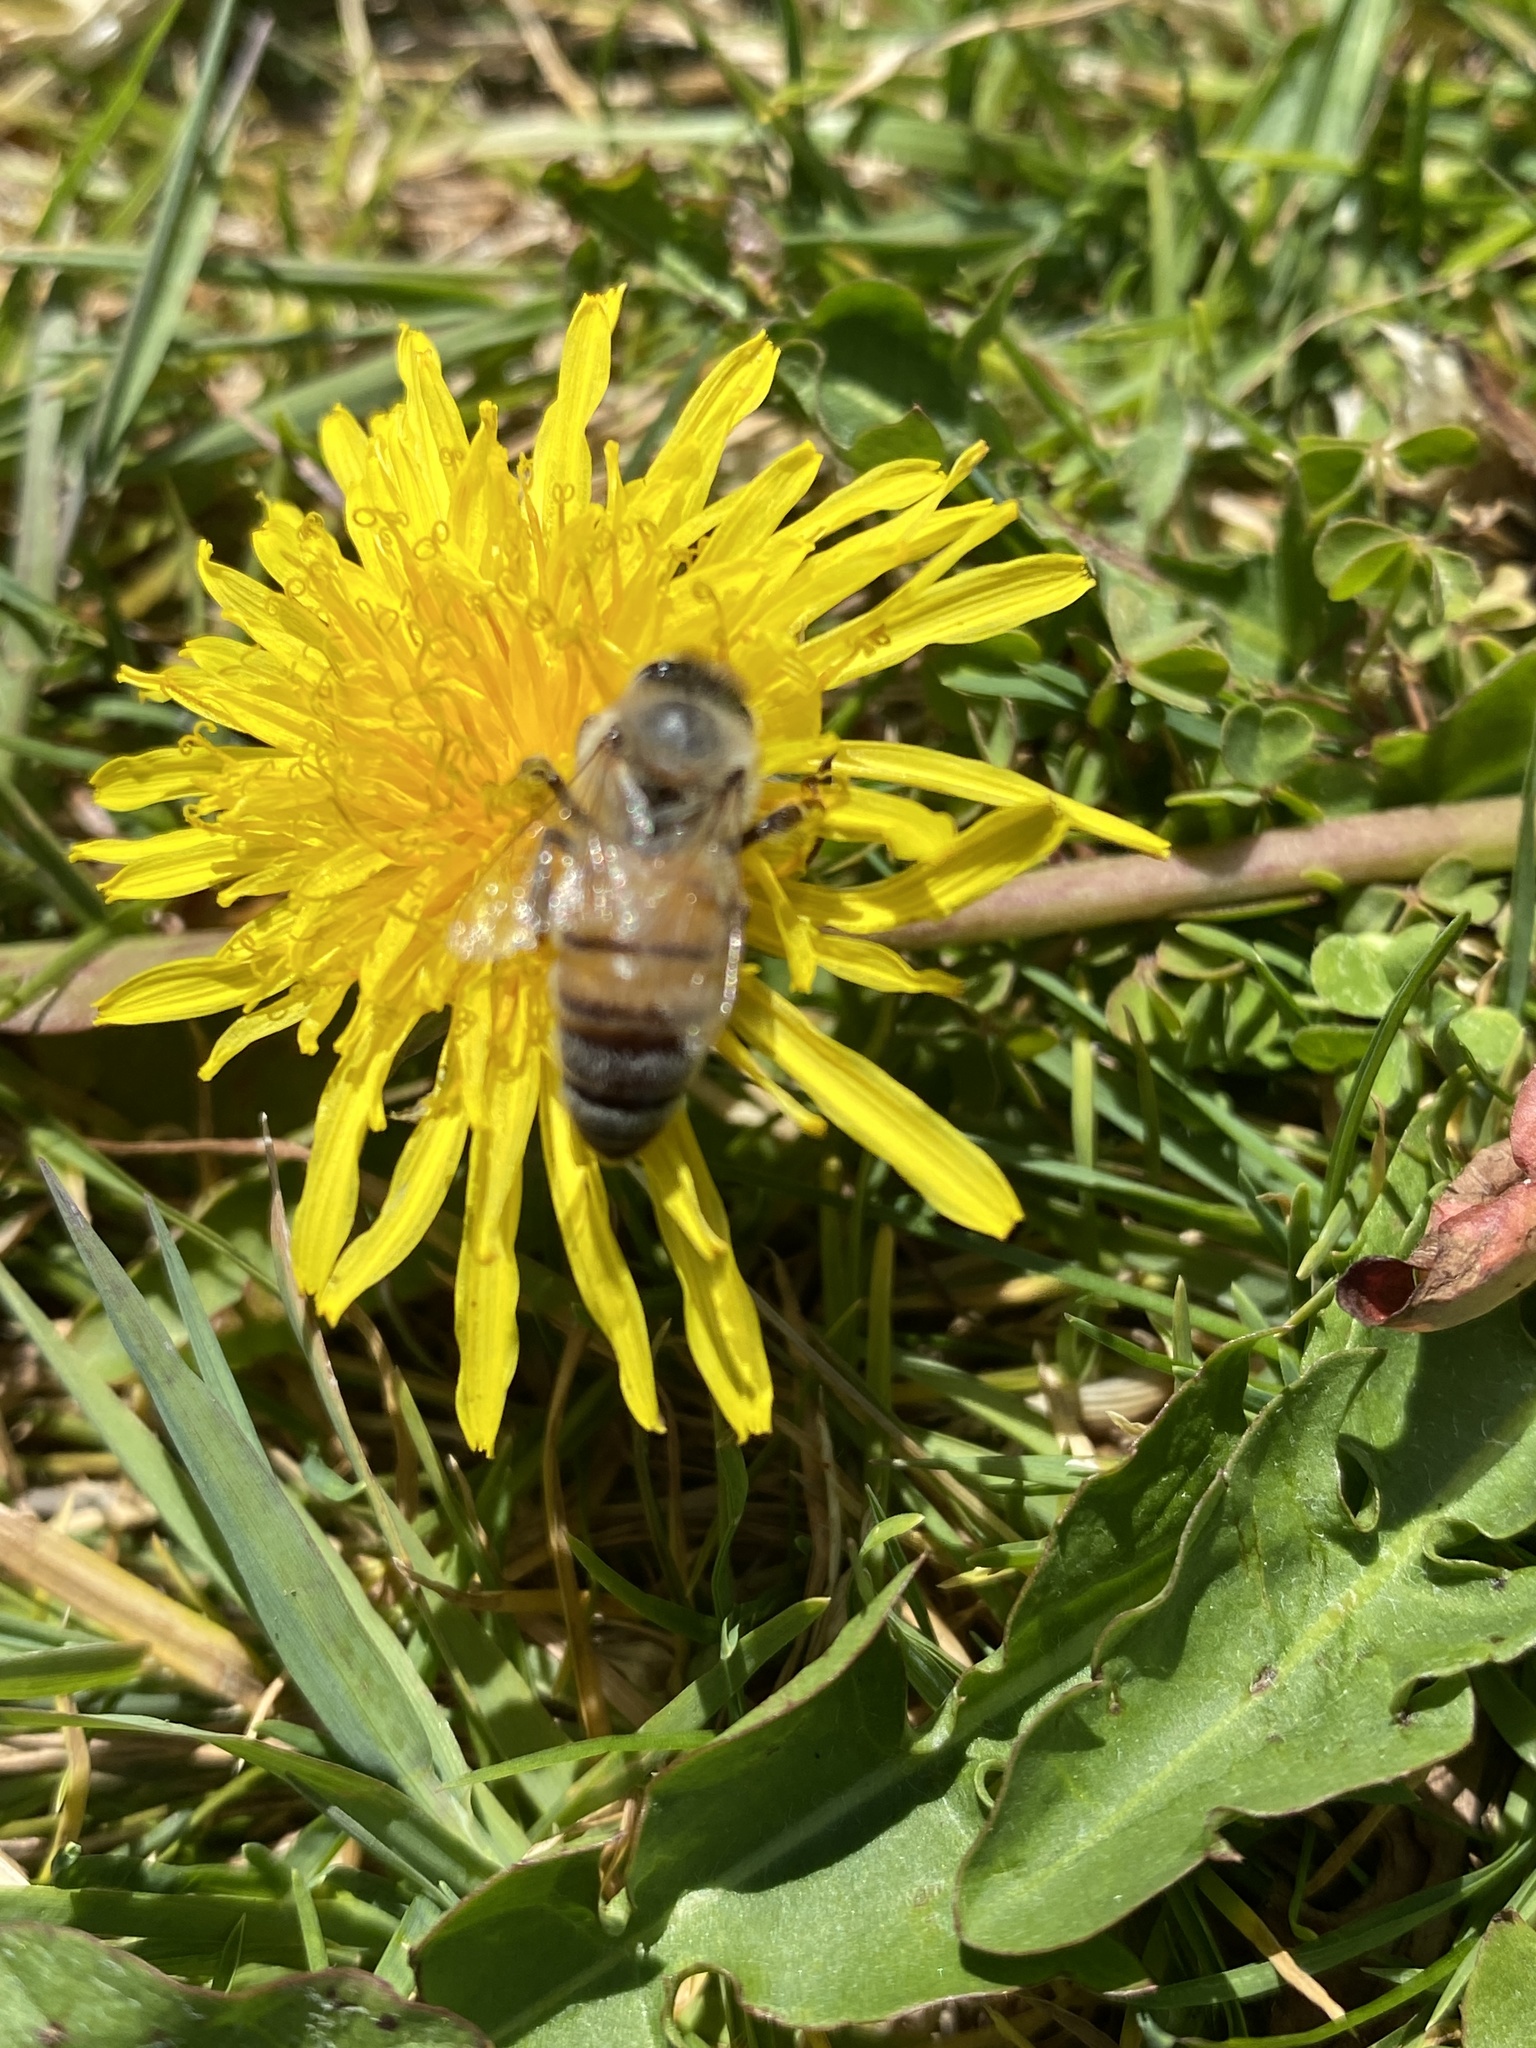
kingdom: Animalia
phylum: Arthropoda
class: Insecta
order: Hymenoptera
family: Apidae
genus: Apis
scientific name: Apis mellifera
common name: Honey bee
